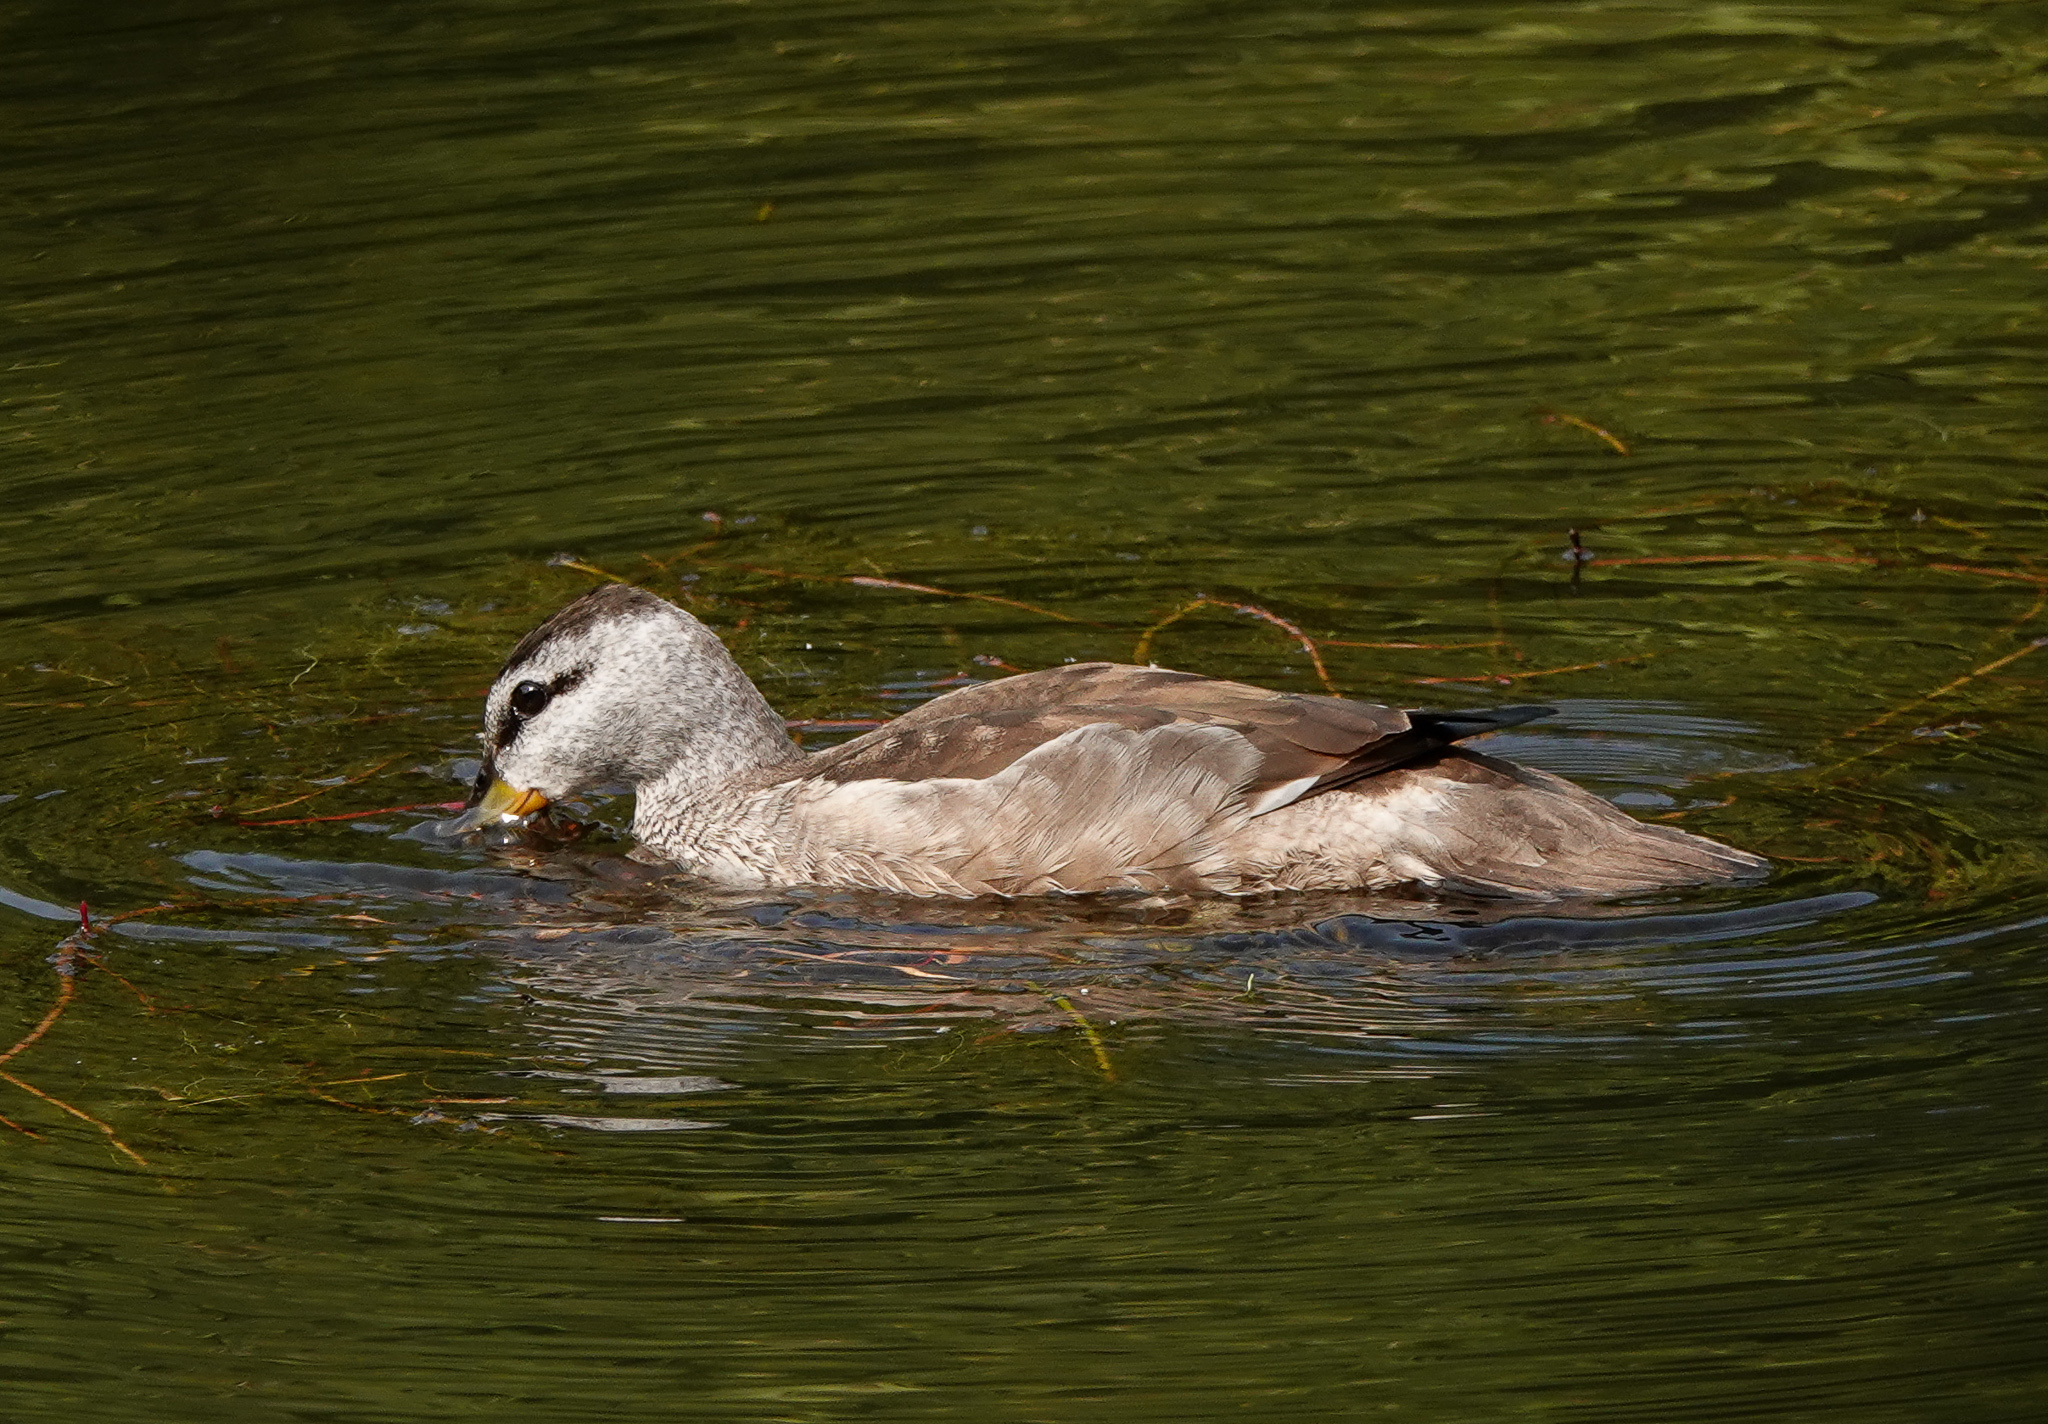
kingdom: Animalia
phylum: Chordata
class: Aves
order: Anseriformes
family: Anatidae
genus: Nettapus
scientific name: Nettapus coromandelianus
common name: Cotton pygmy-goose
